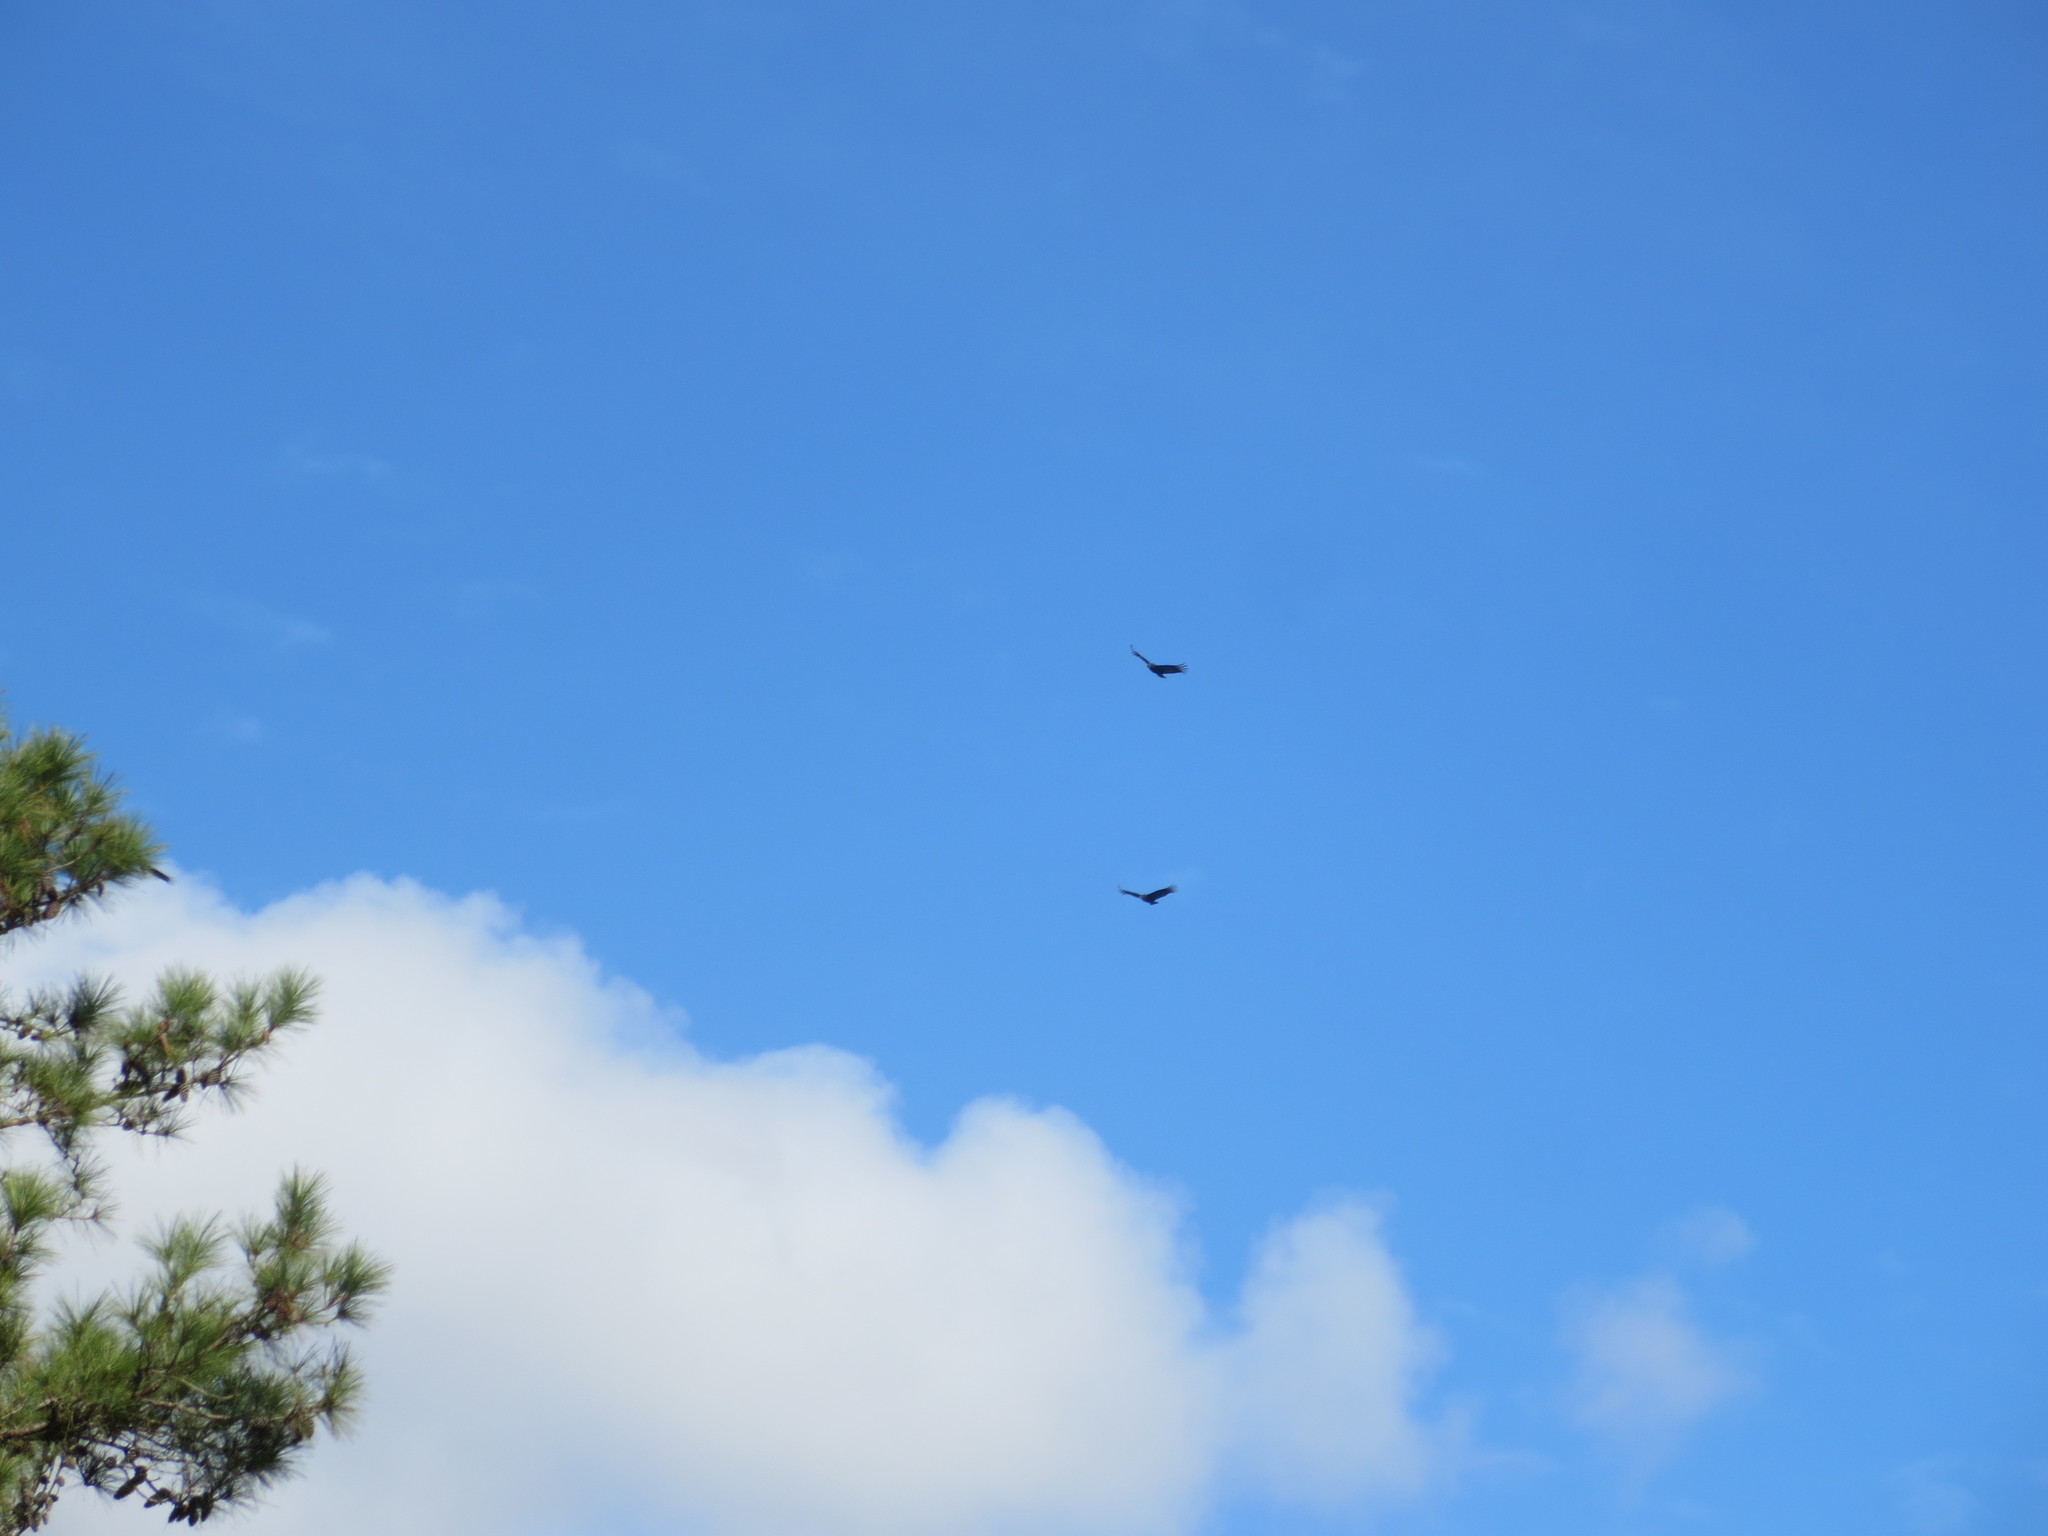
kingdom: Animalia
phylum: Chordata
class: Aves
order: Accipitriformes
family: Cathartidae
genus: Coragyps
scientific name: Coragyps atratus
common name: Black vulture
